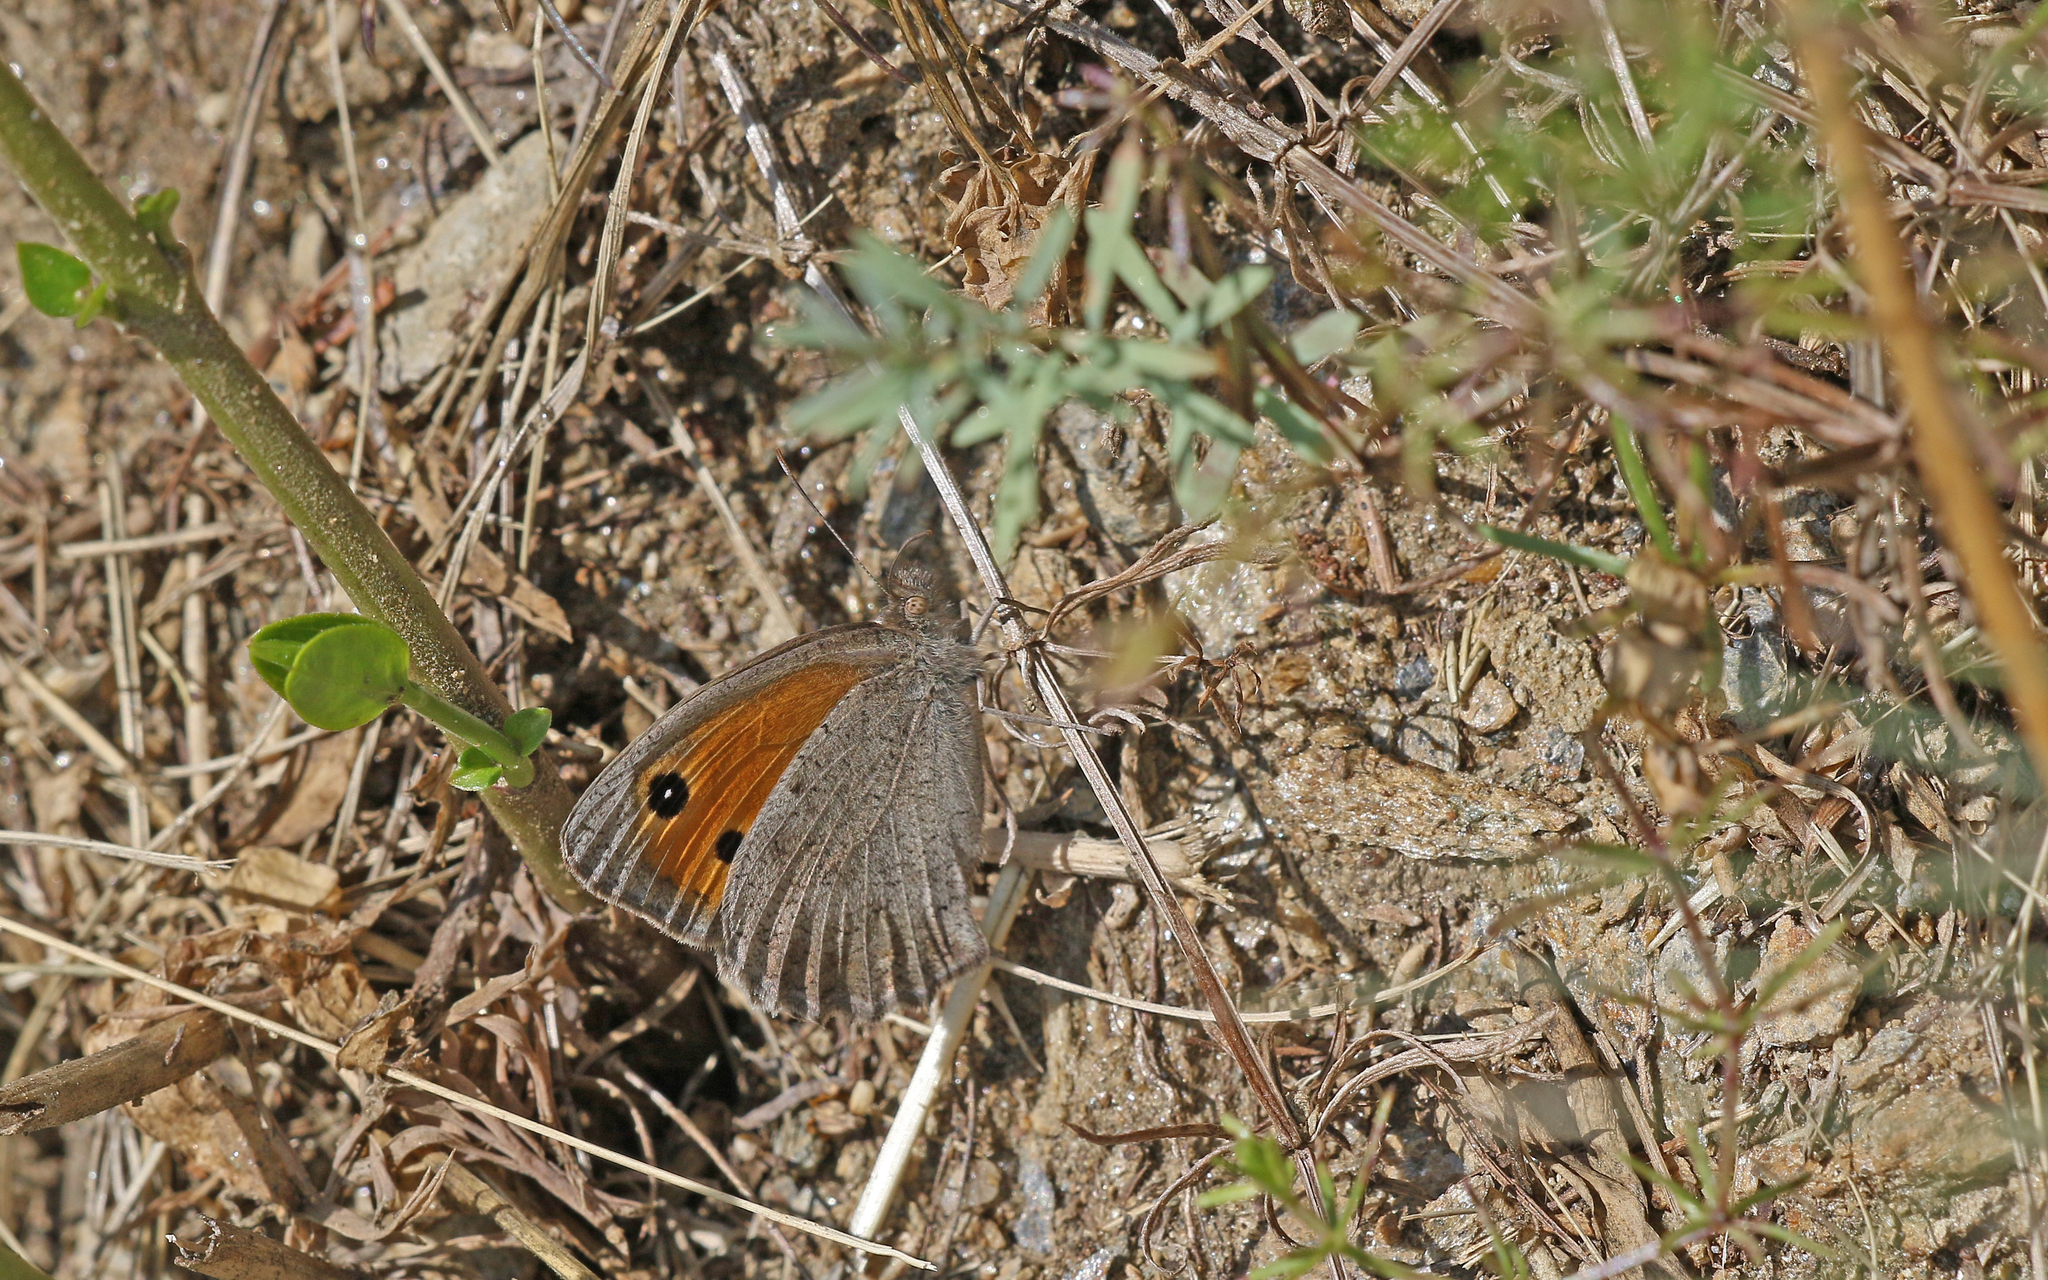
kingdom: Animalia
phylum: Arthropoda
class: Insecta
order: Lepidoptera
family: Nymphalidae
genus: Hyponephele
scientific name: Hyponephele lycaon
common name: Dusky meadow brown
